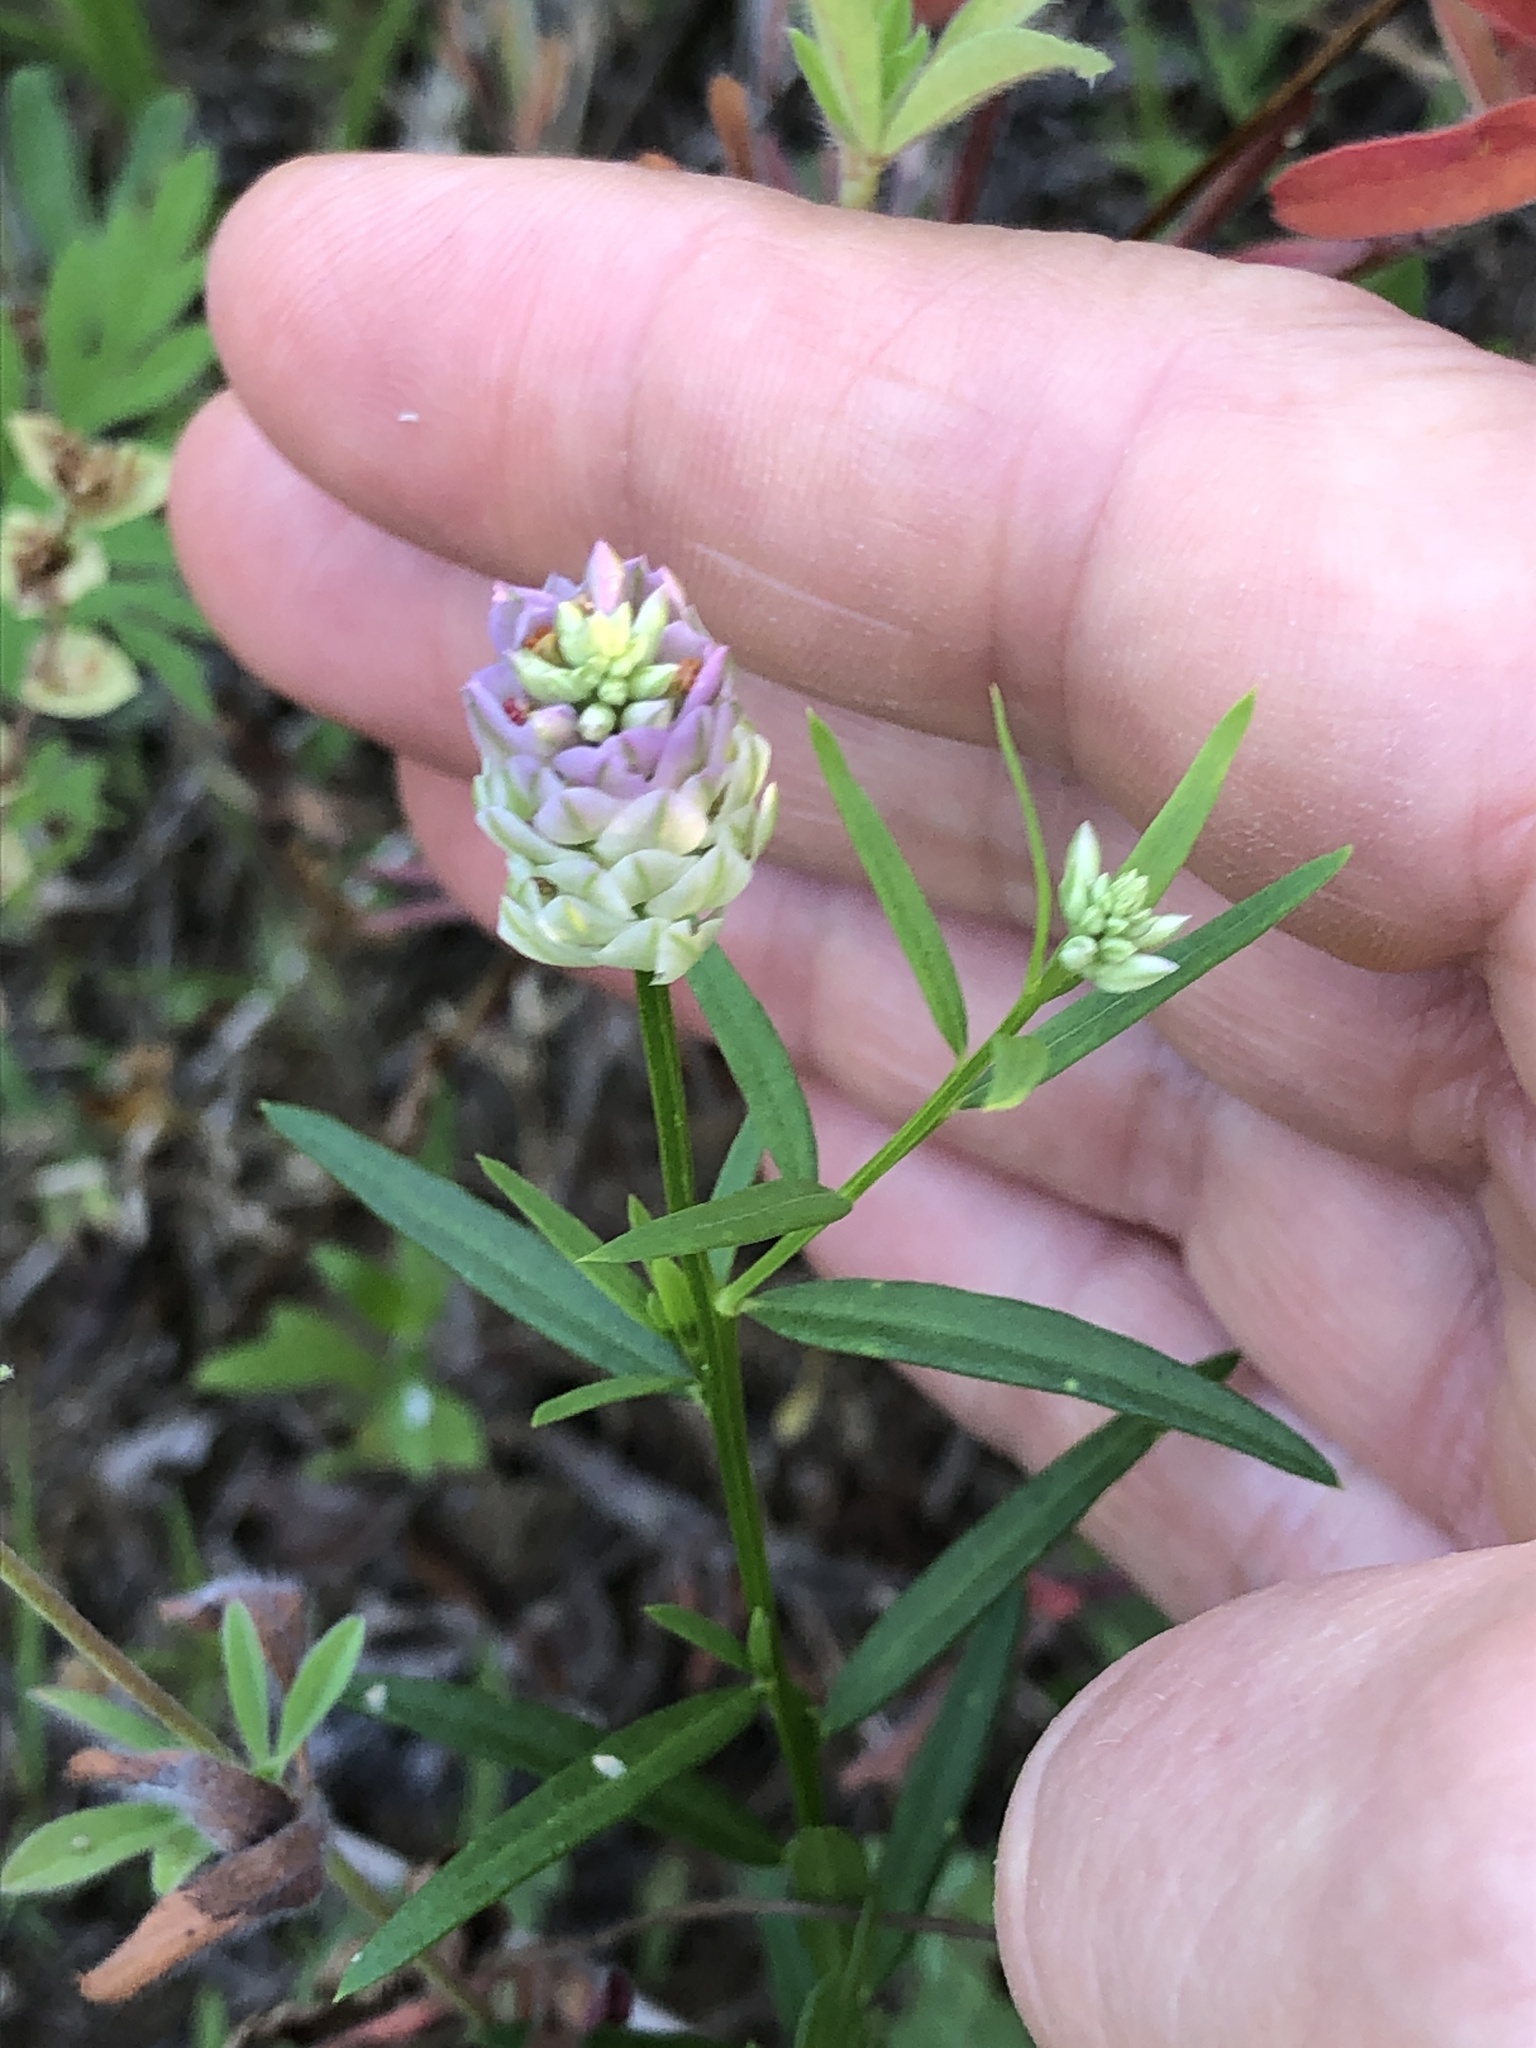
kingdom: Plantae
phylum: Tracheophyta
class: Magnoliopsida
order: Fabales
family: Polygalaceae
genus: Polygala
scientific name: Polygala sanguinea
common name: Blood milkwort
